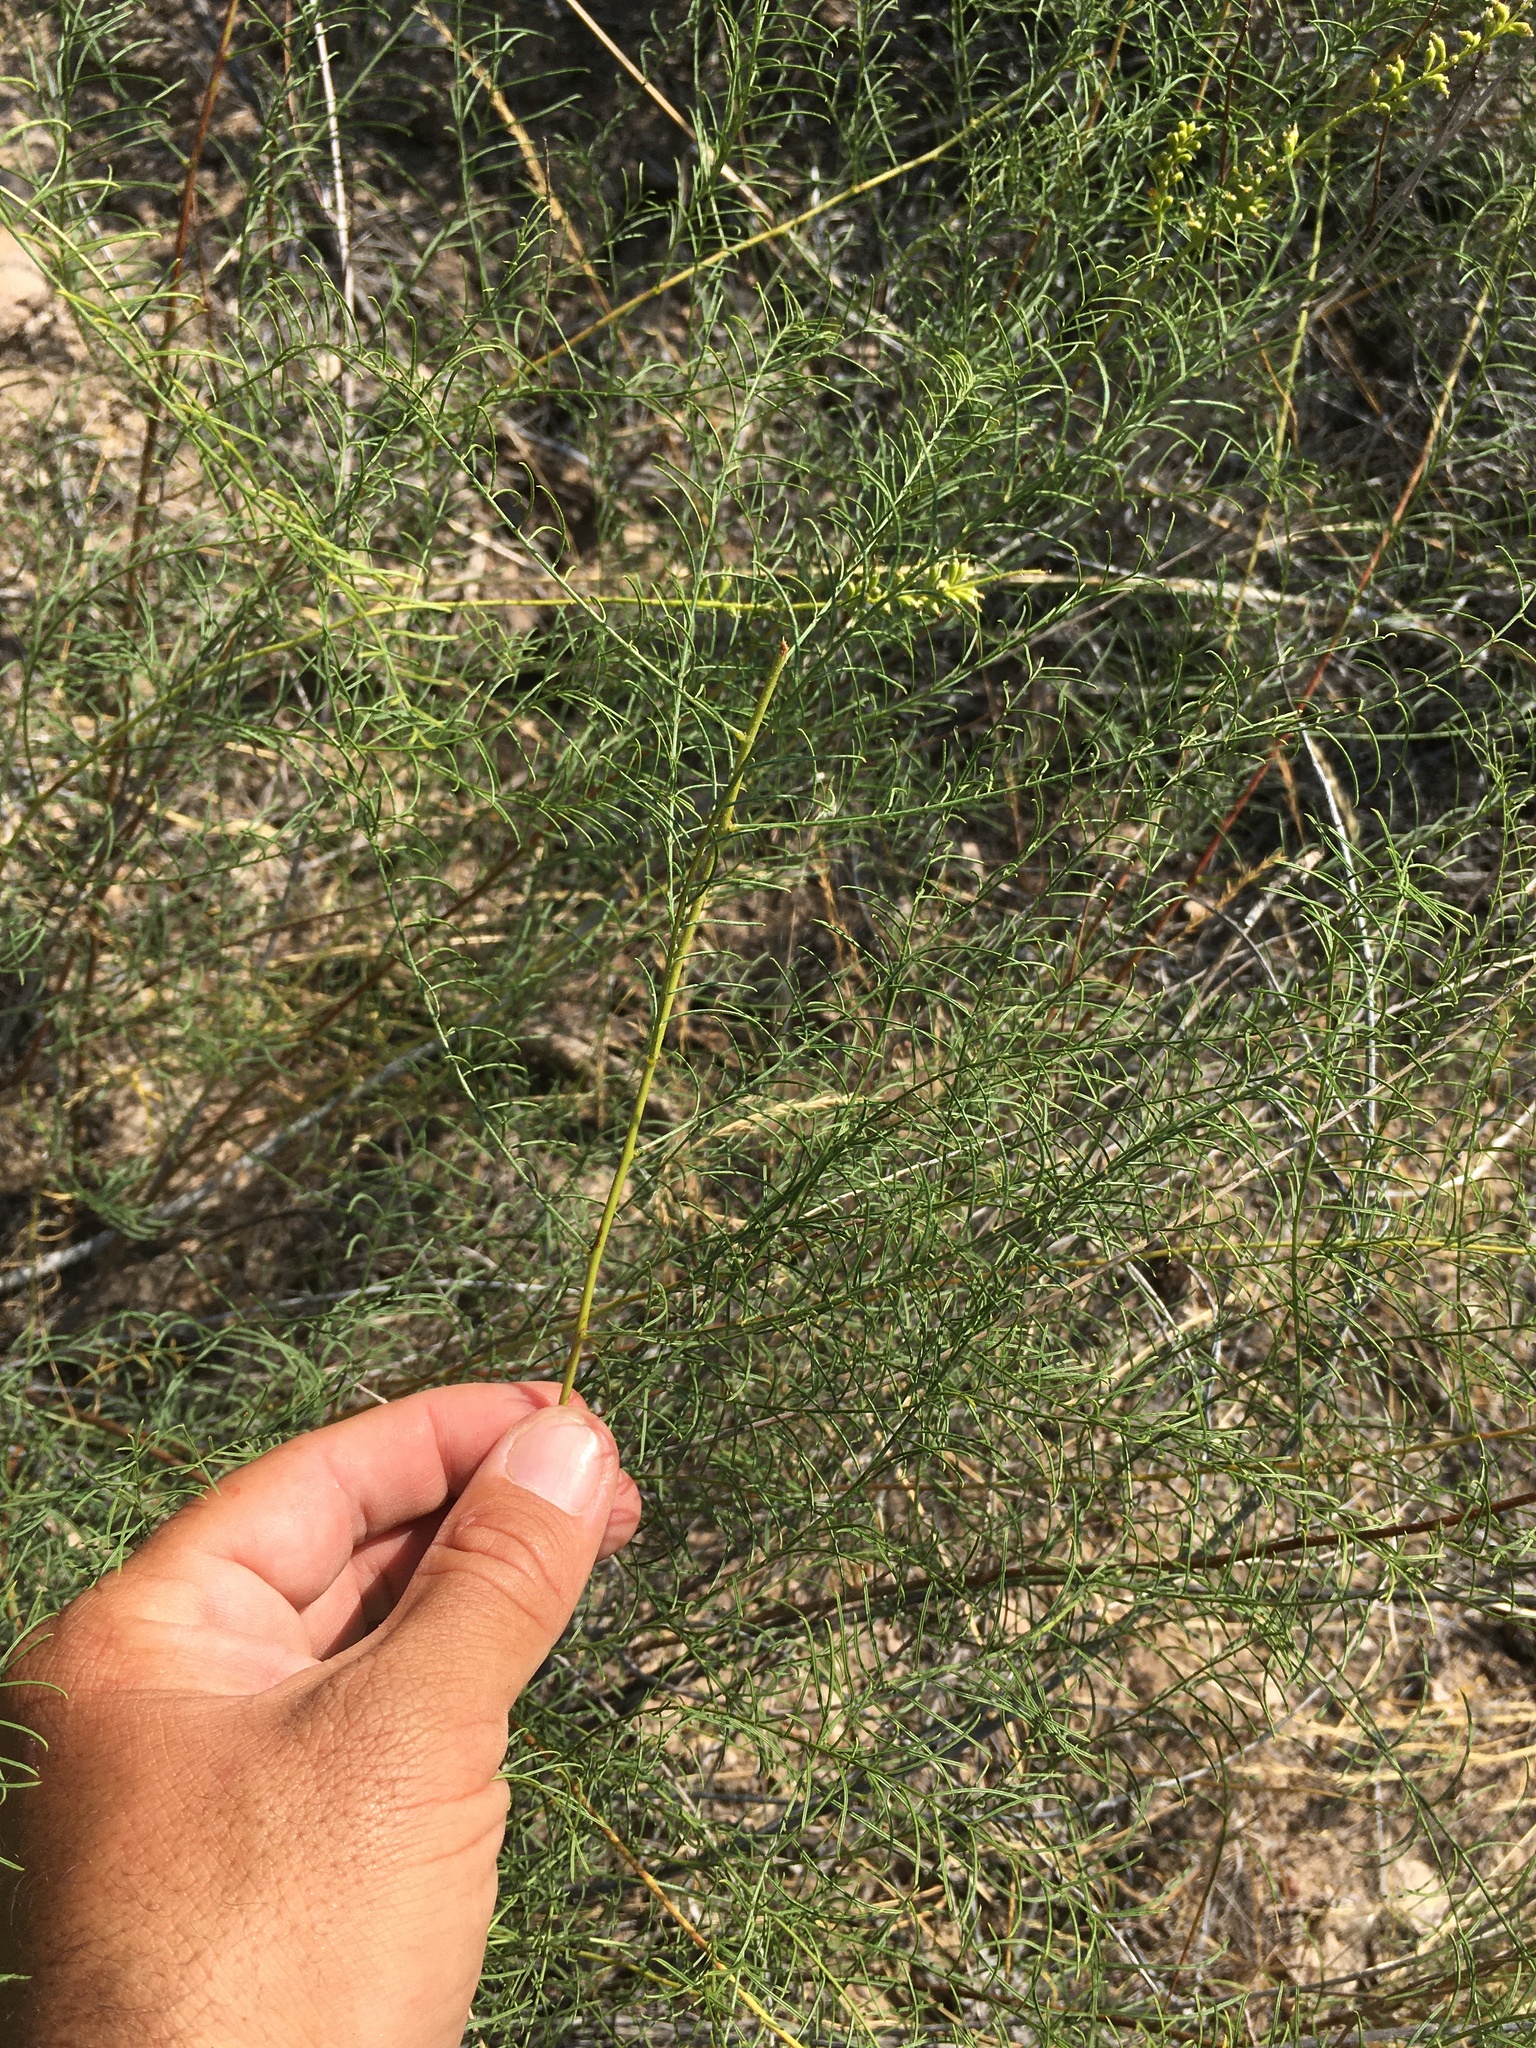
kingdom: Plantae
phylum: Tracheophyta
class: Magnoliopsida
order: Fabales
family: Fabaceae
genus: Parryella
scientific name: Parryella filifolia
